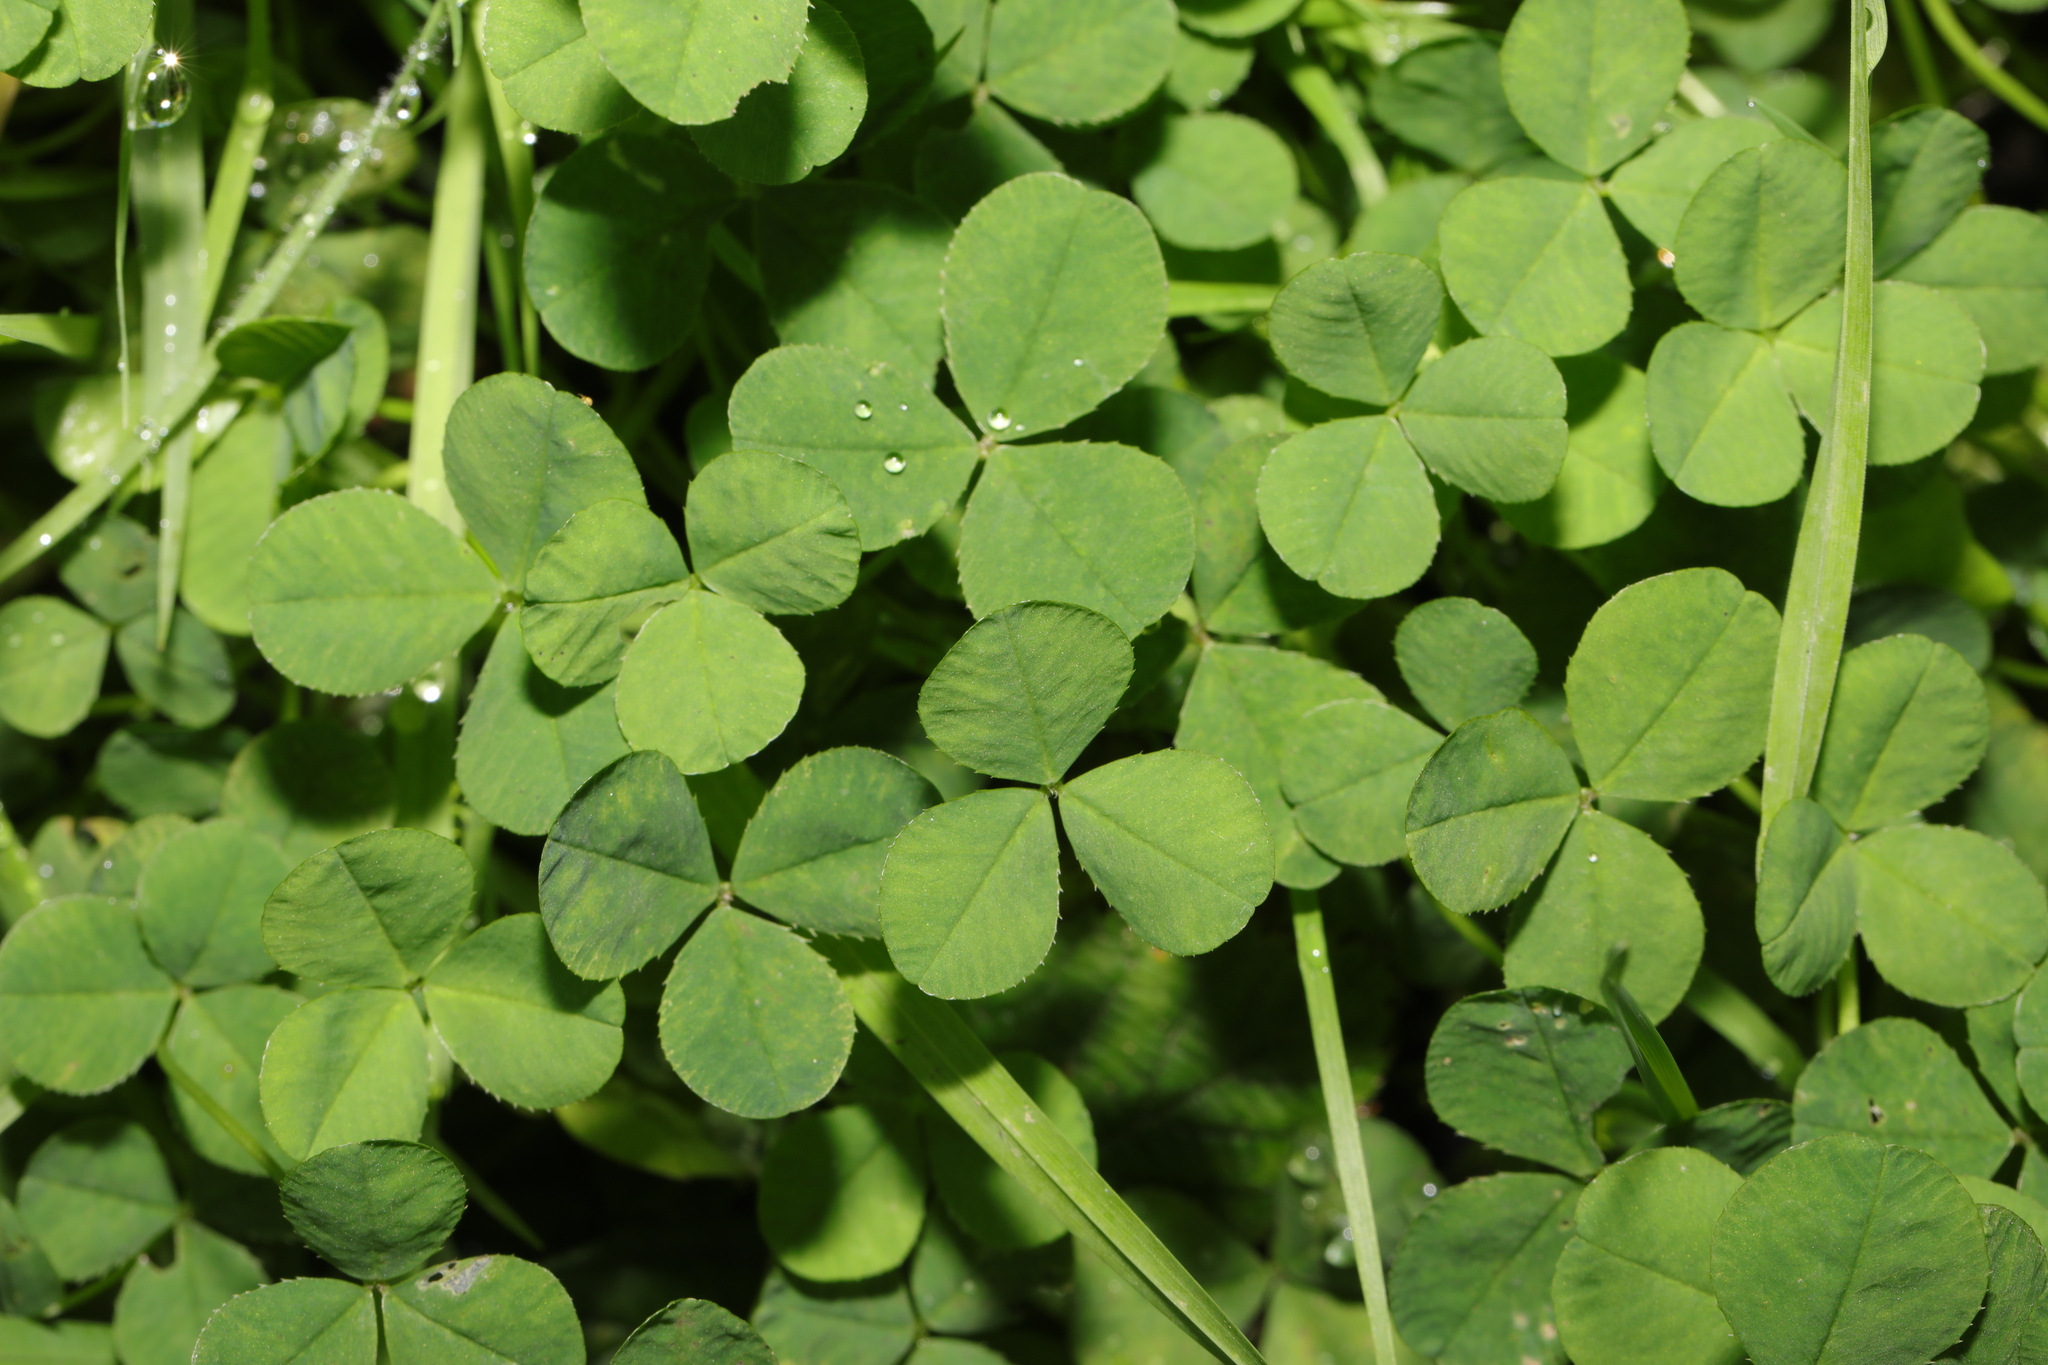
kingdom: Plantae
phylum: Tracheophyta
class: Magnoliopsida
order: Fabales
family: Fabaceae
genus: Trifolium
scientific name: Trifolium repens
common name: White clover
